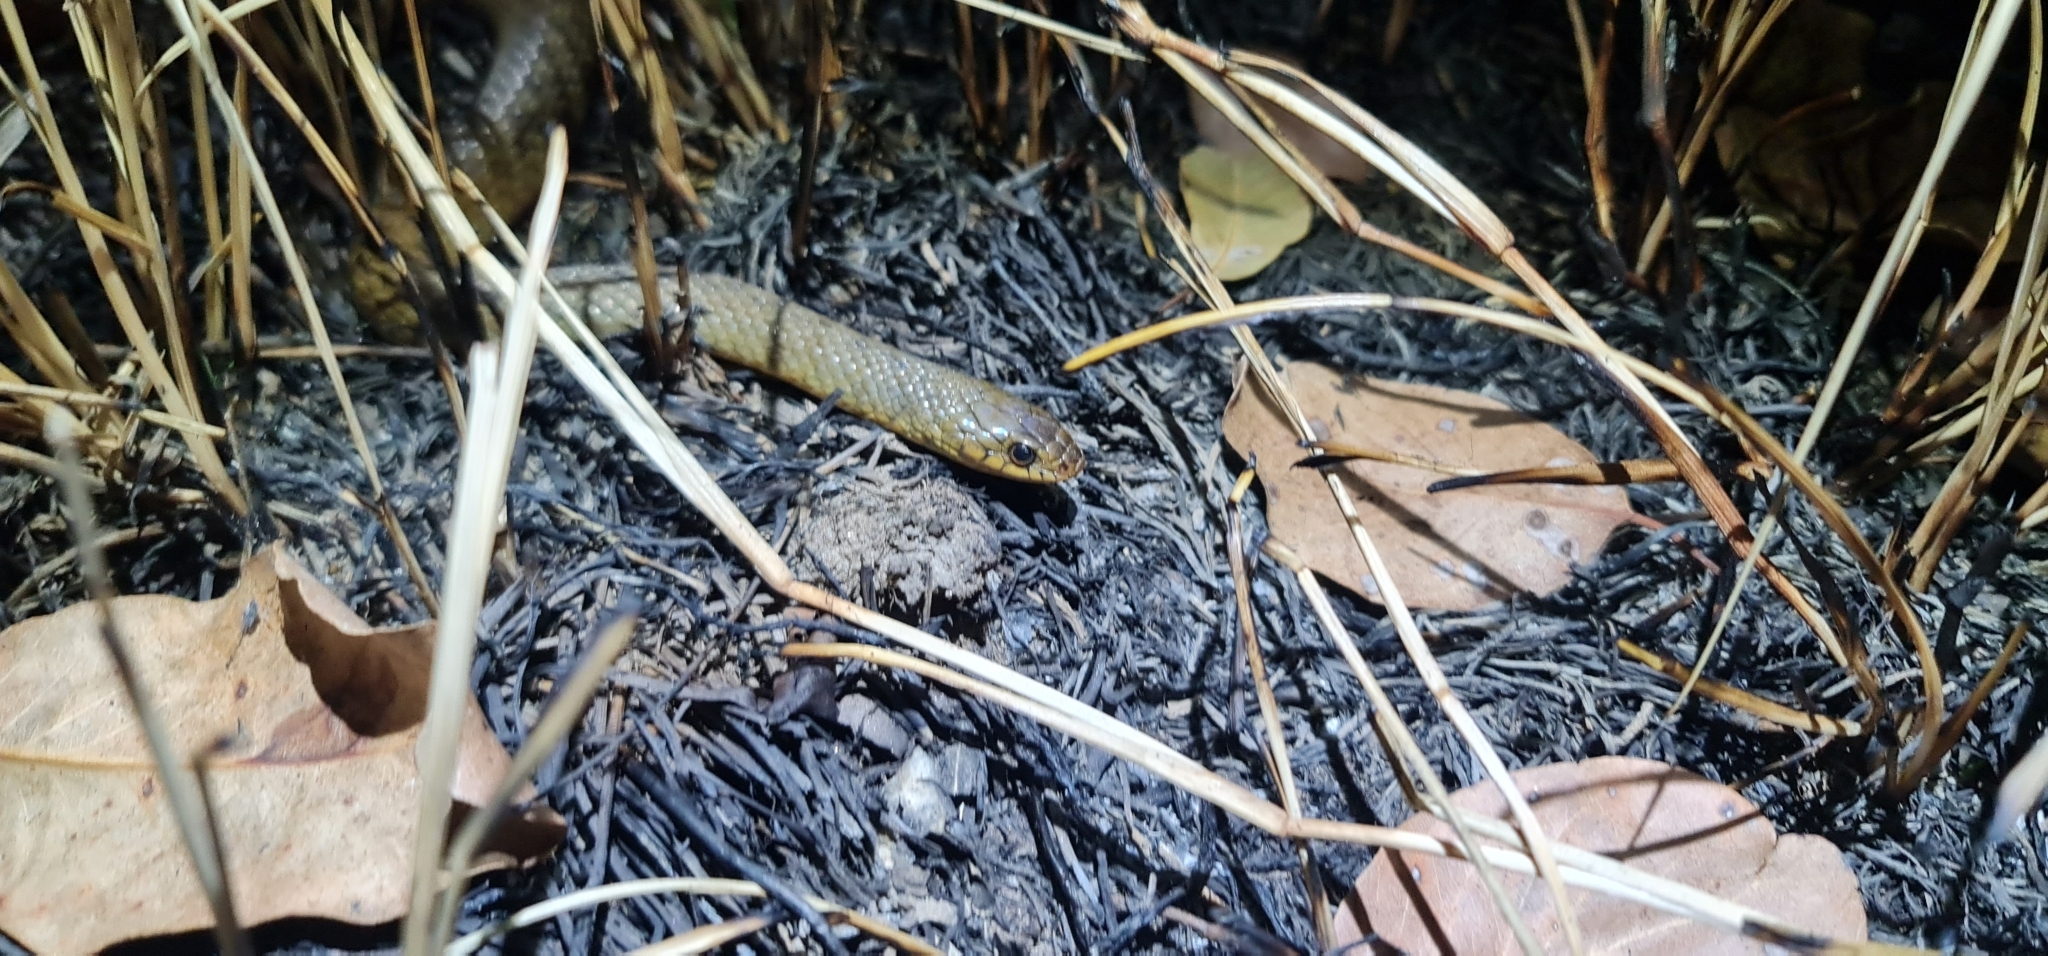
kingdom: Animalia
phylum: Chordata
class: Squamata
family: Colubridae
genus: Tropidonophis
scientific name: Tropidonophis mairii
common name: Common keelback
